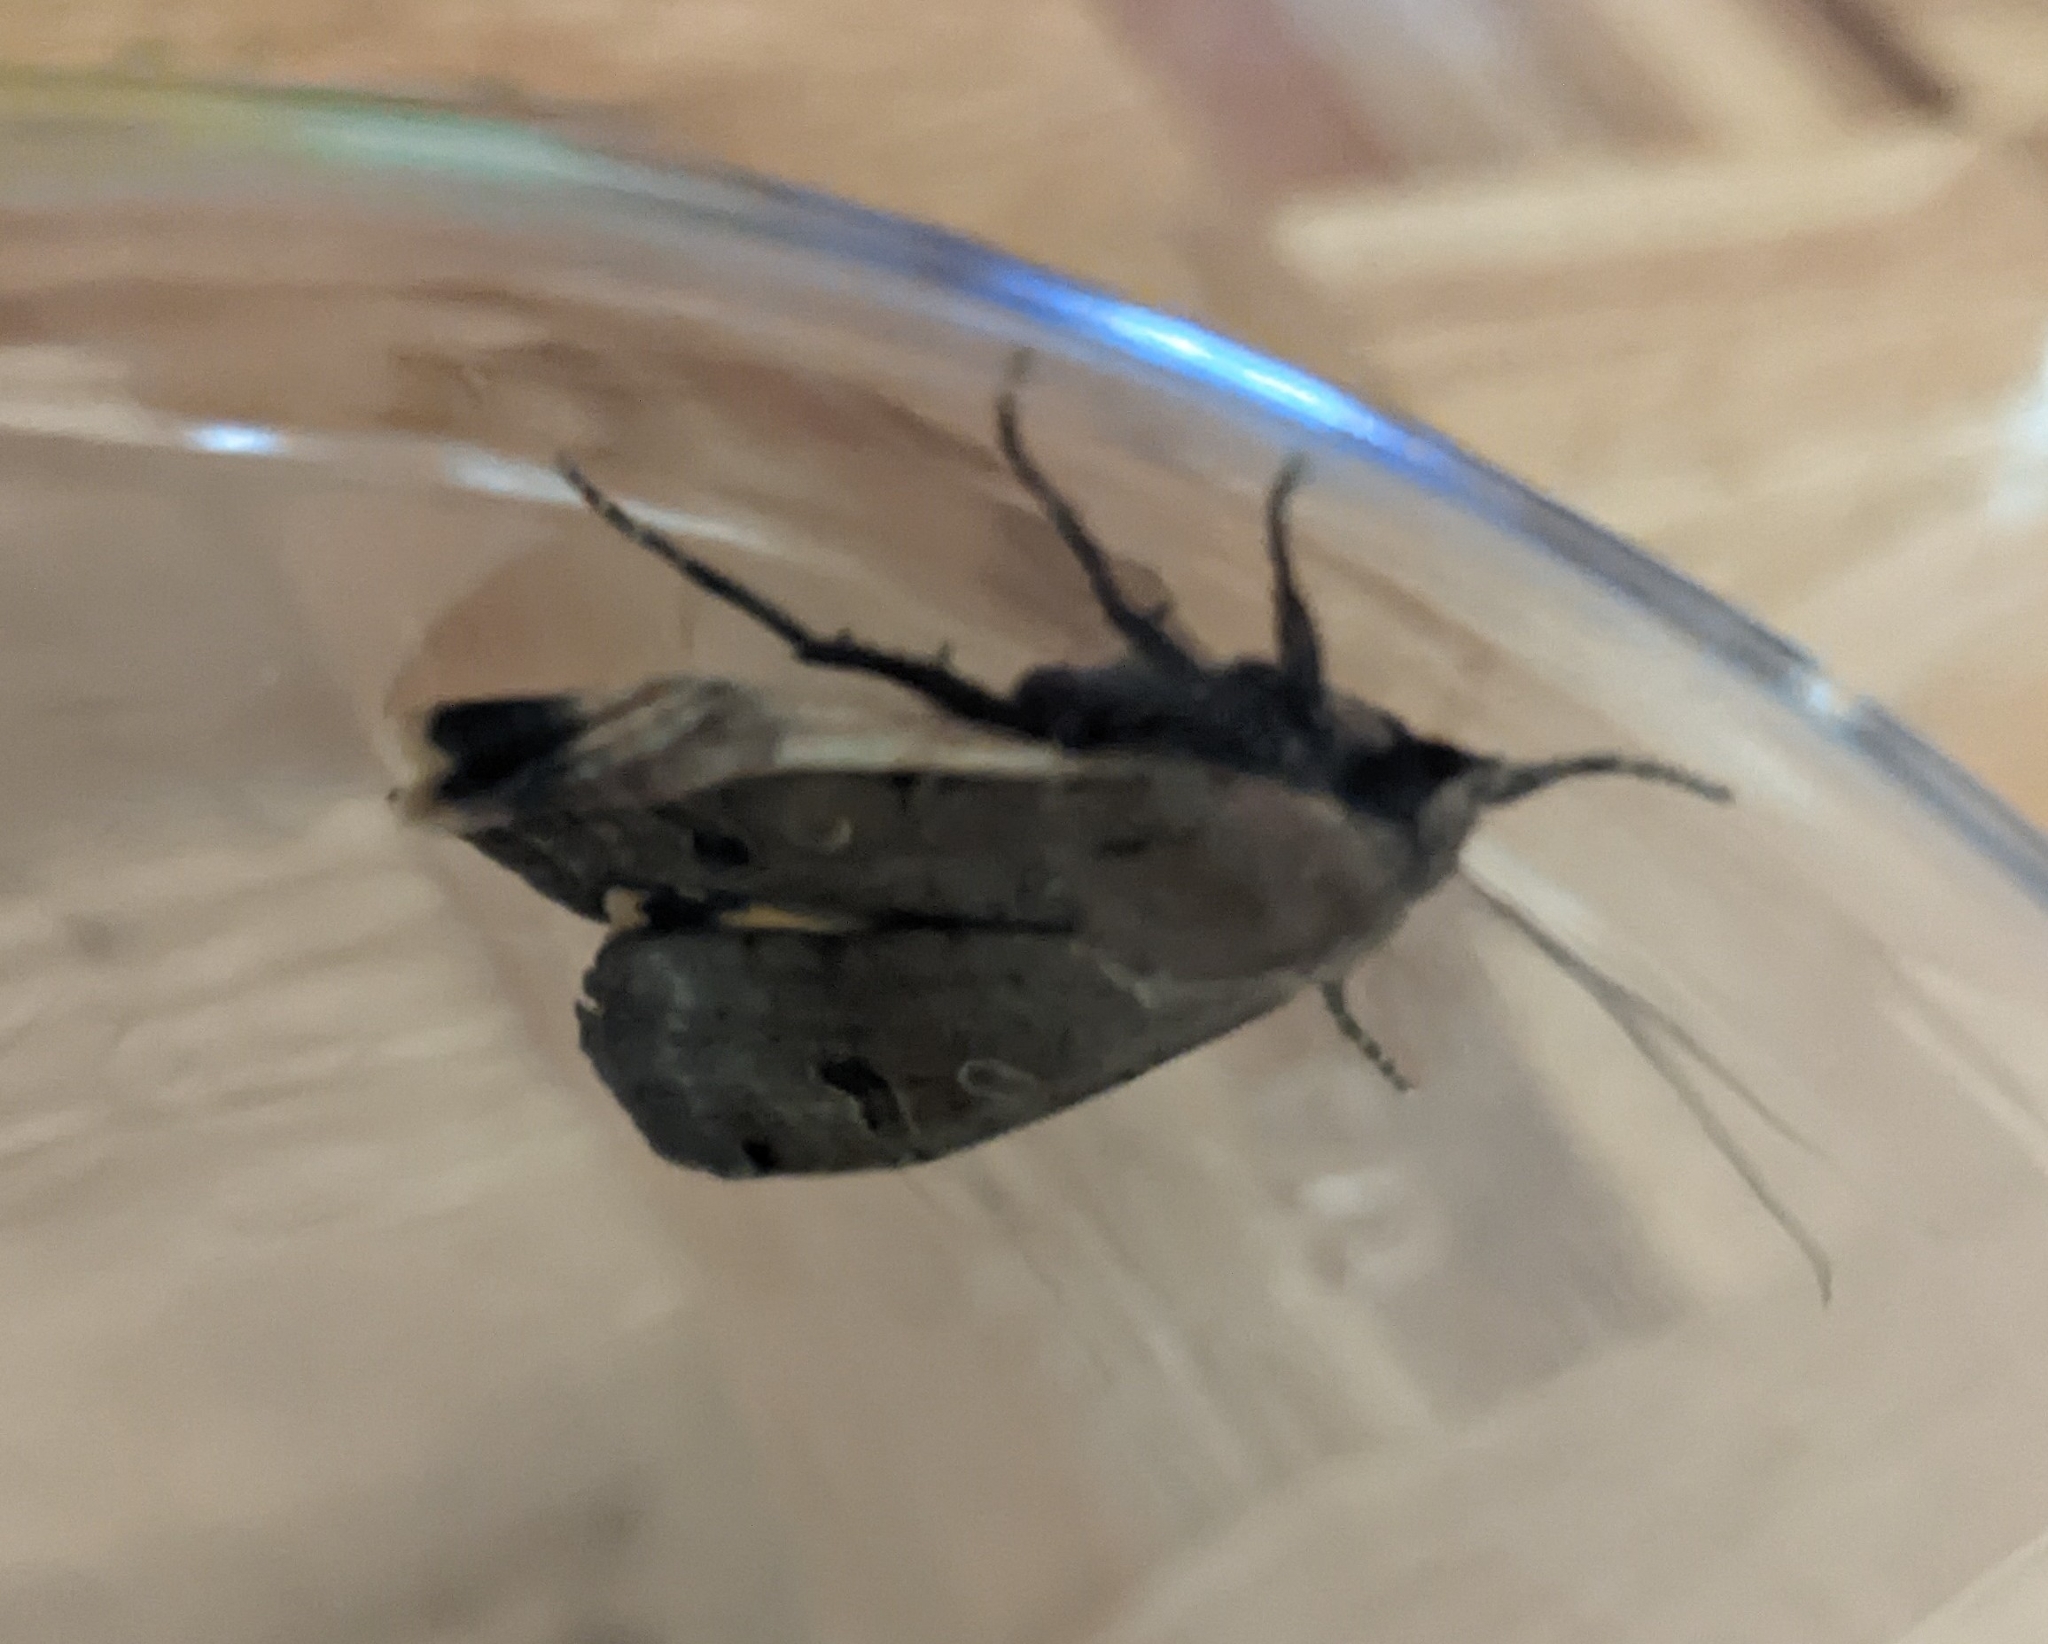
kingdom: Animalia
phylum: Arthropoda
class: Insecta
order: Lepidoptera
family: Noctuidae
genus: Noctua
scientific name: Noctua pronuba
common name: Large yellow underwing
